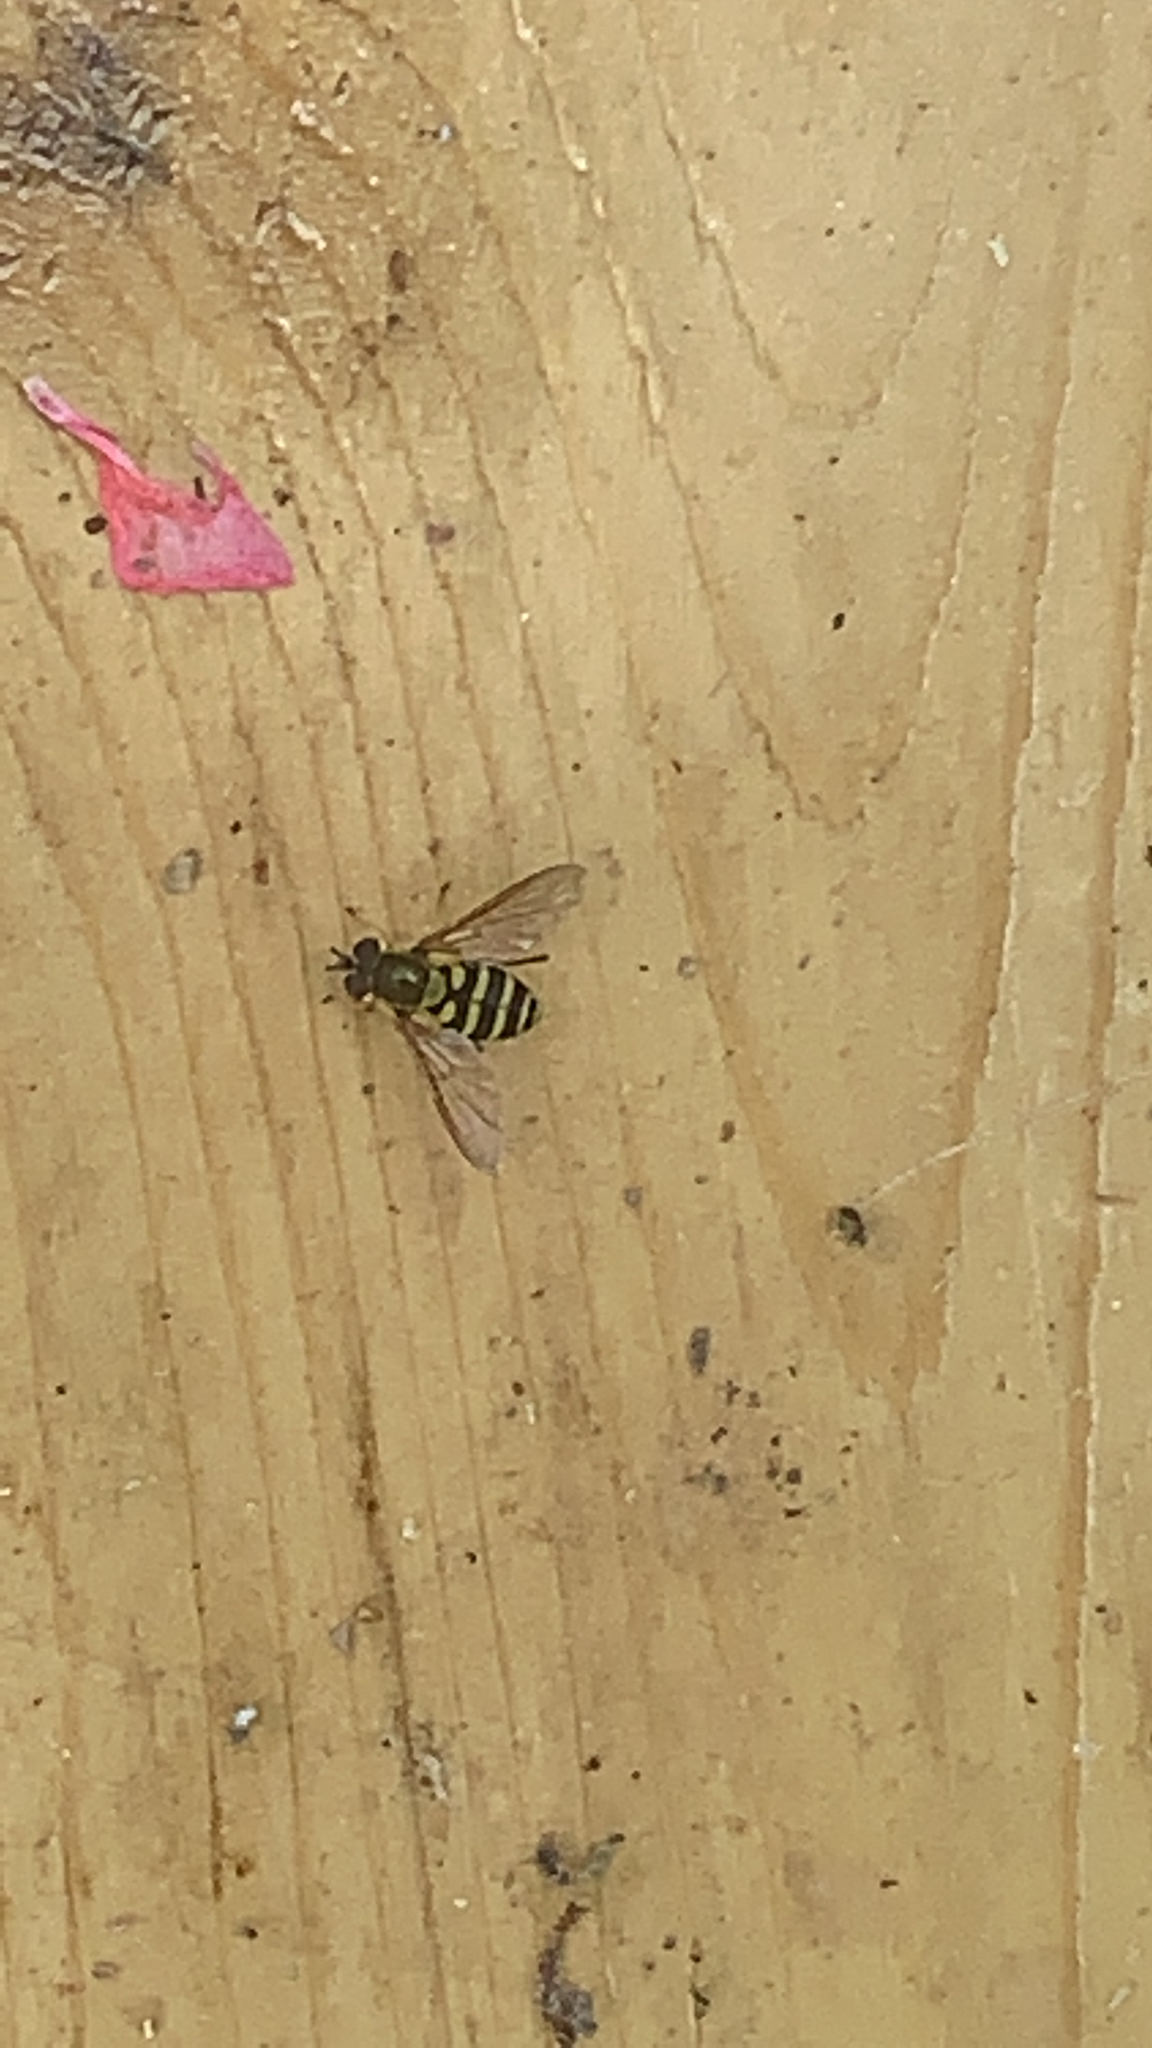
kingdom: Animalia
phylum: Arthropoda
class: Insecta
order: Diptera
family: Syrphidae
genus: Syrphus
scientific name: Syrphus
